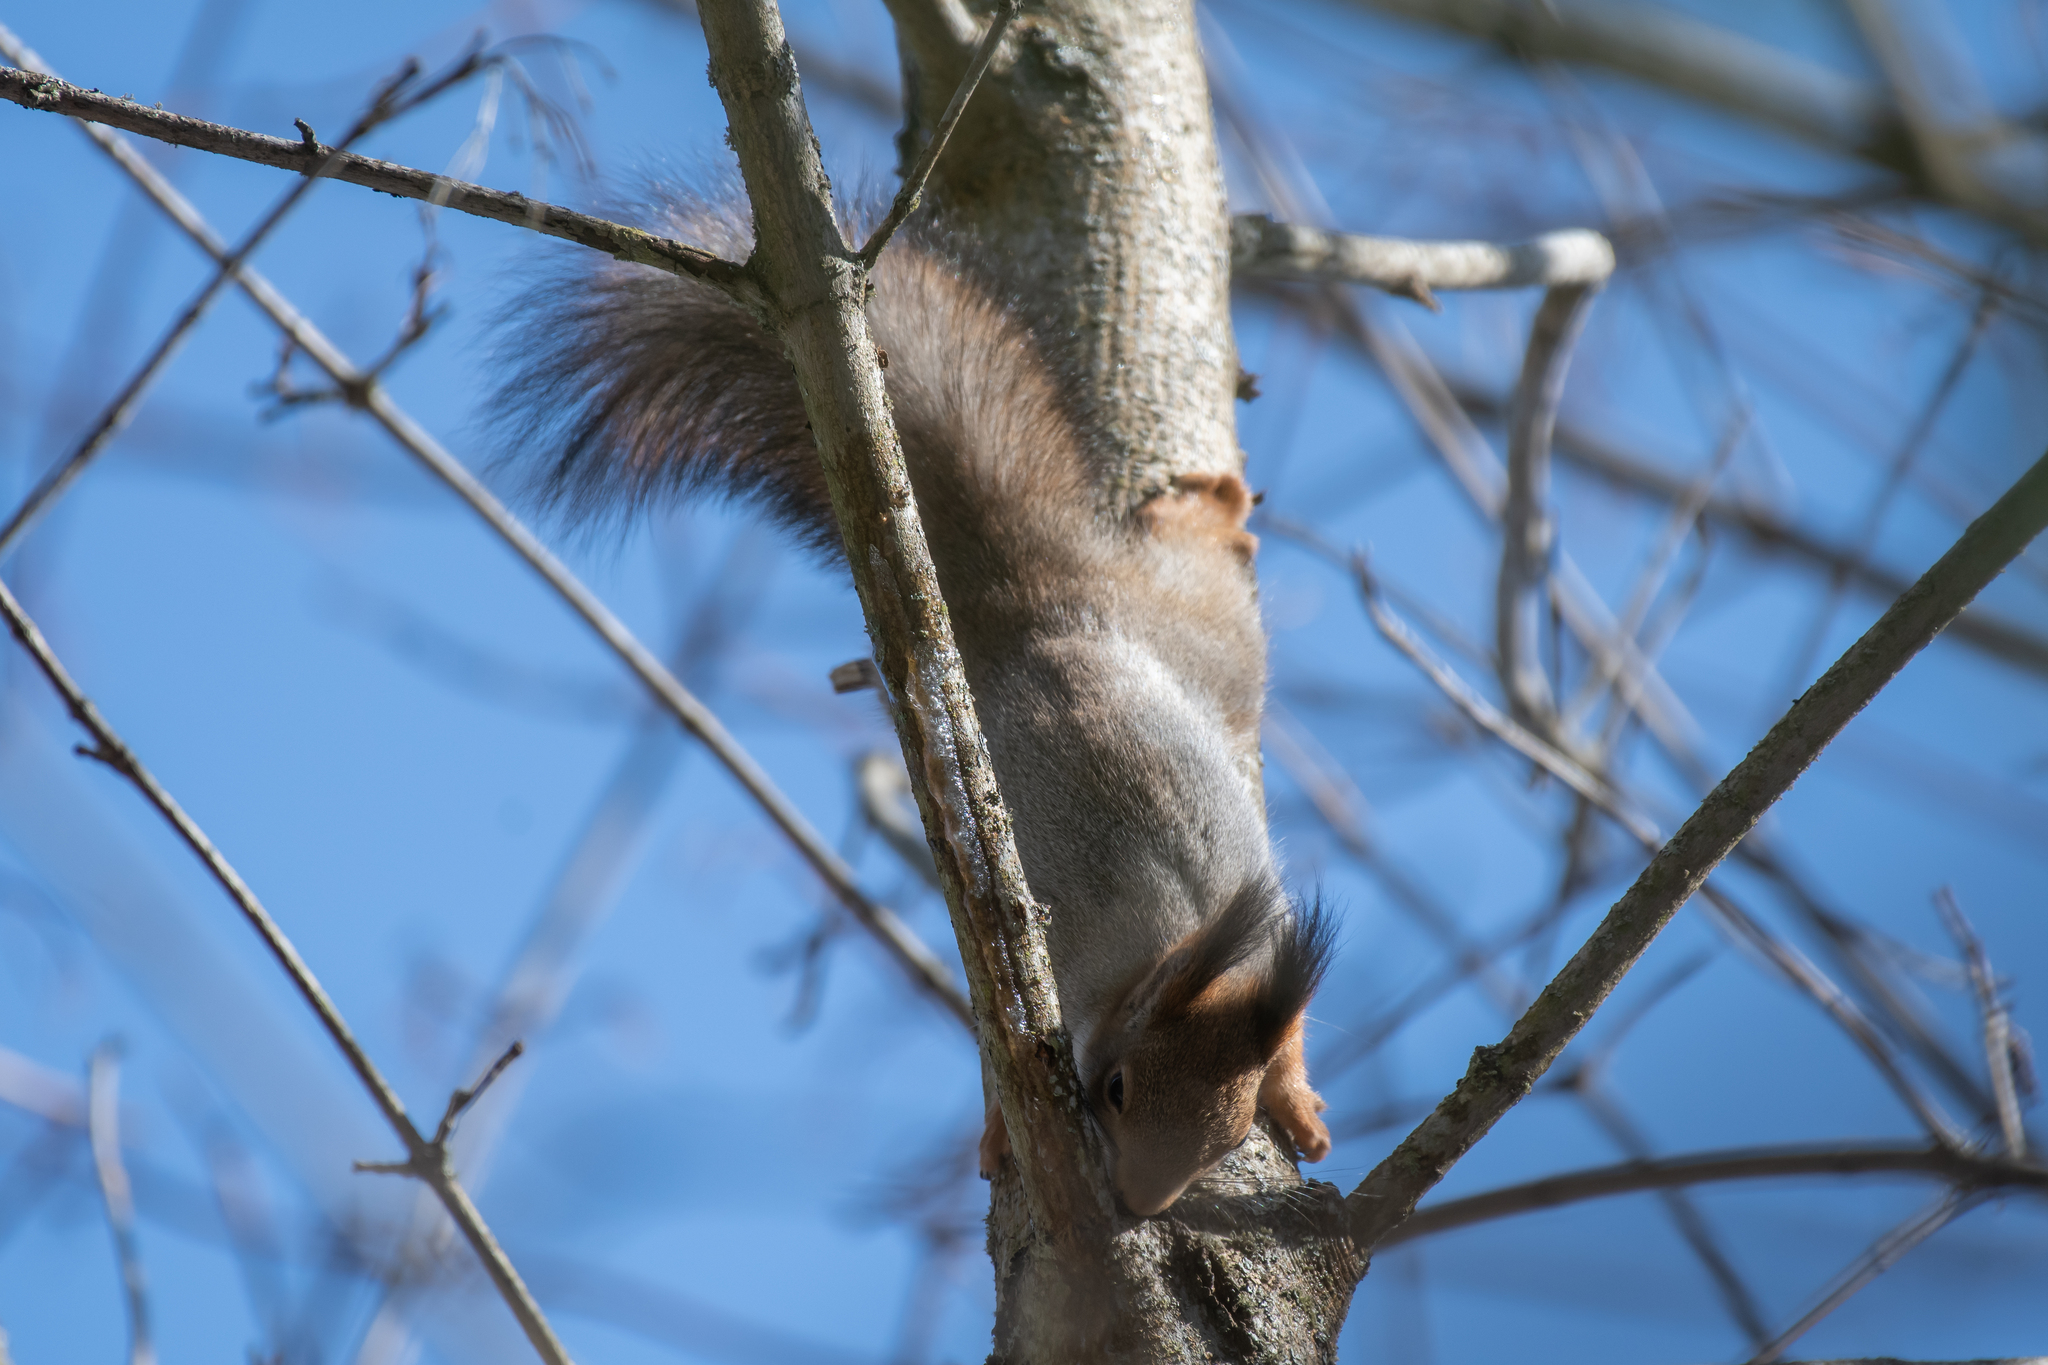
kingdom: Animalia
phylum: Chordata
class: Mammalia
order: Rodentia
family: Sciuridae
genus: Sciurus
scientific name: Sciurus vulgaris
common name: Eurasian red squirrel
